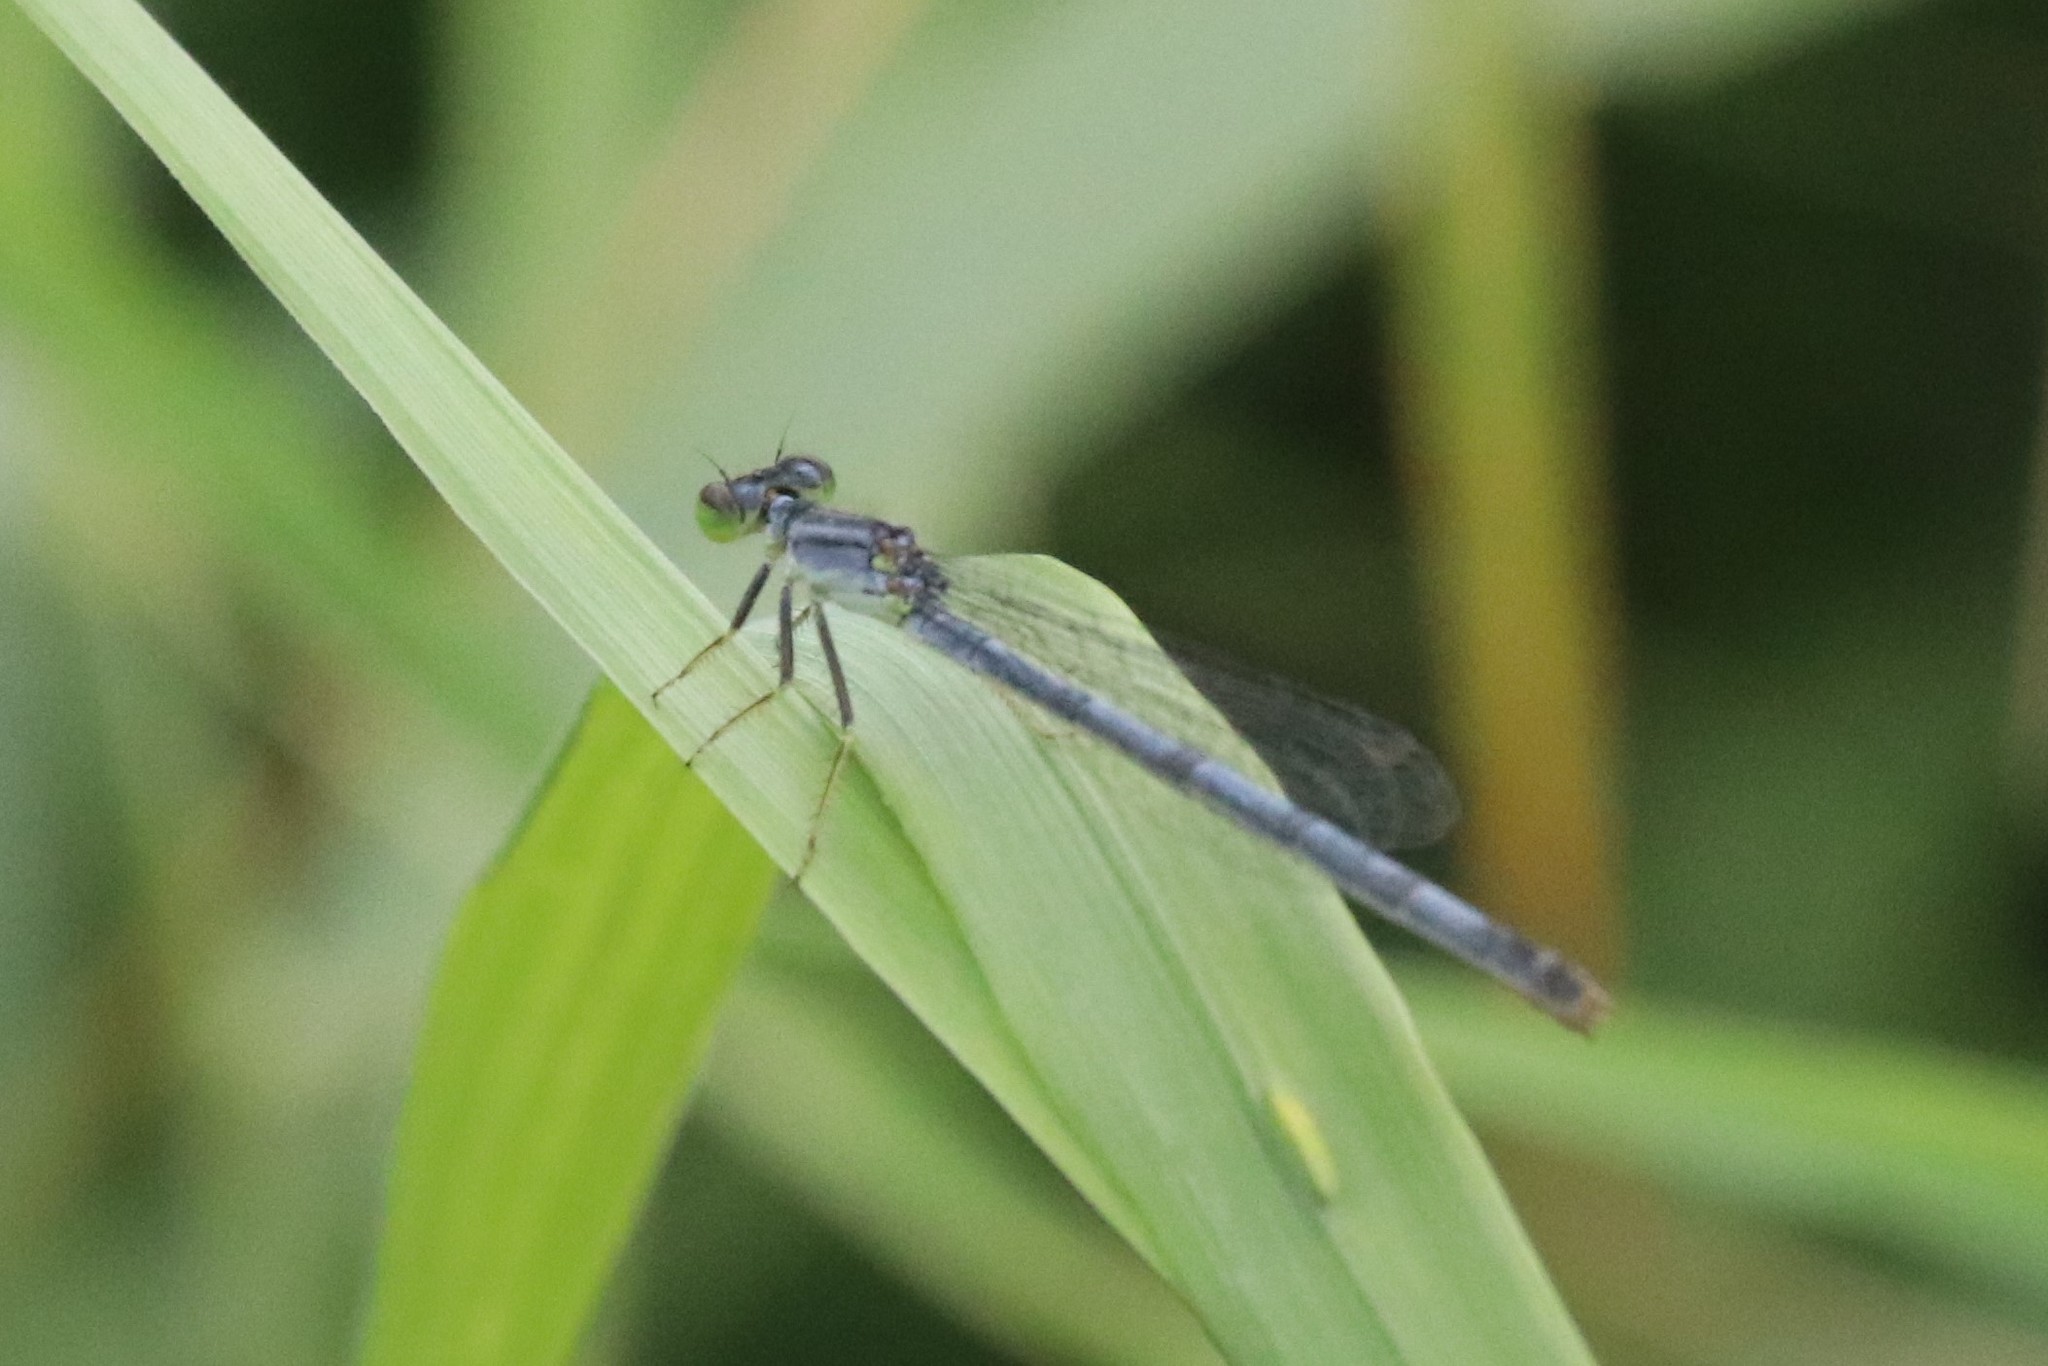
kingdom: Animalia
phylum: Arthropoda
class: Insecta
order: Odonata
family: Coenagrionidae
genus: Ischnura
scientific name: Ischnura verticalis
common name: Eastern forktail
